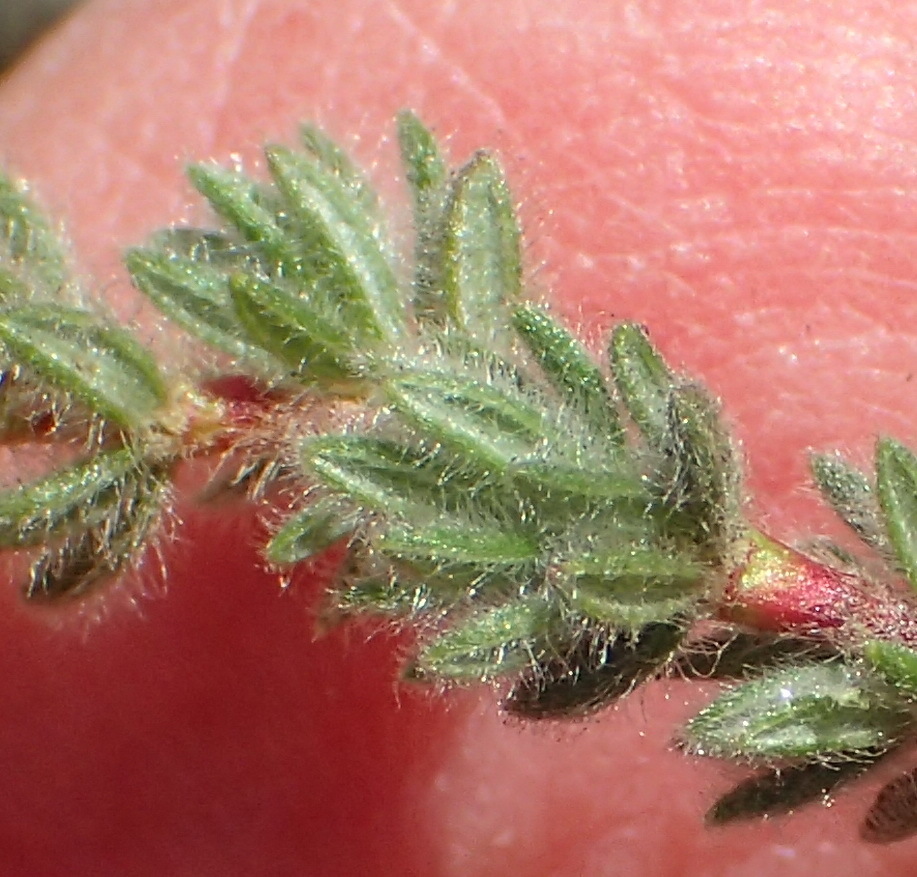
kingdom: Plantae
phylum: Tracheophyta
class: Magnoliopsida
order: Rosales
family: Rosaceae
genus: Cliffortia
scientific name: Cliffortia eriocephalina
